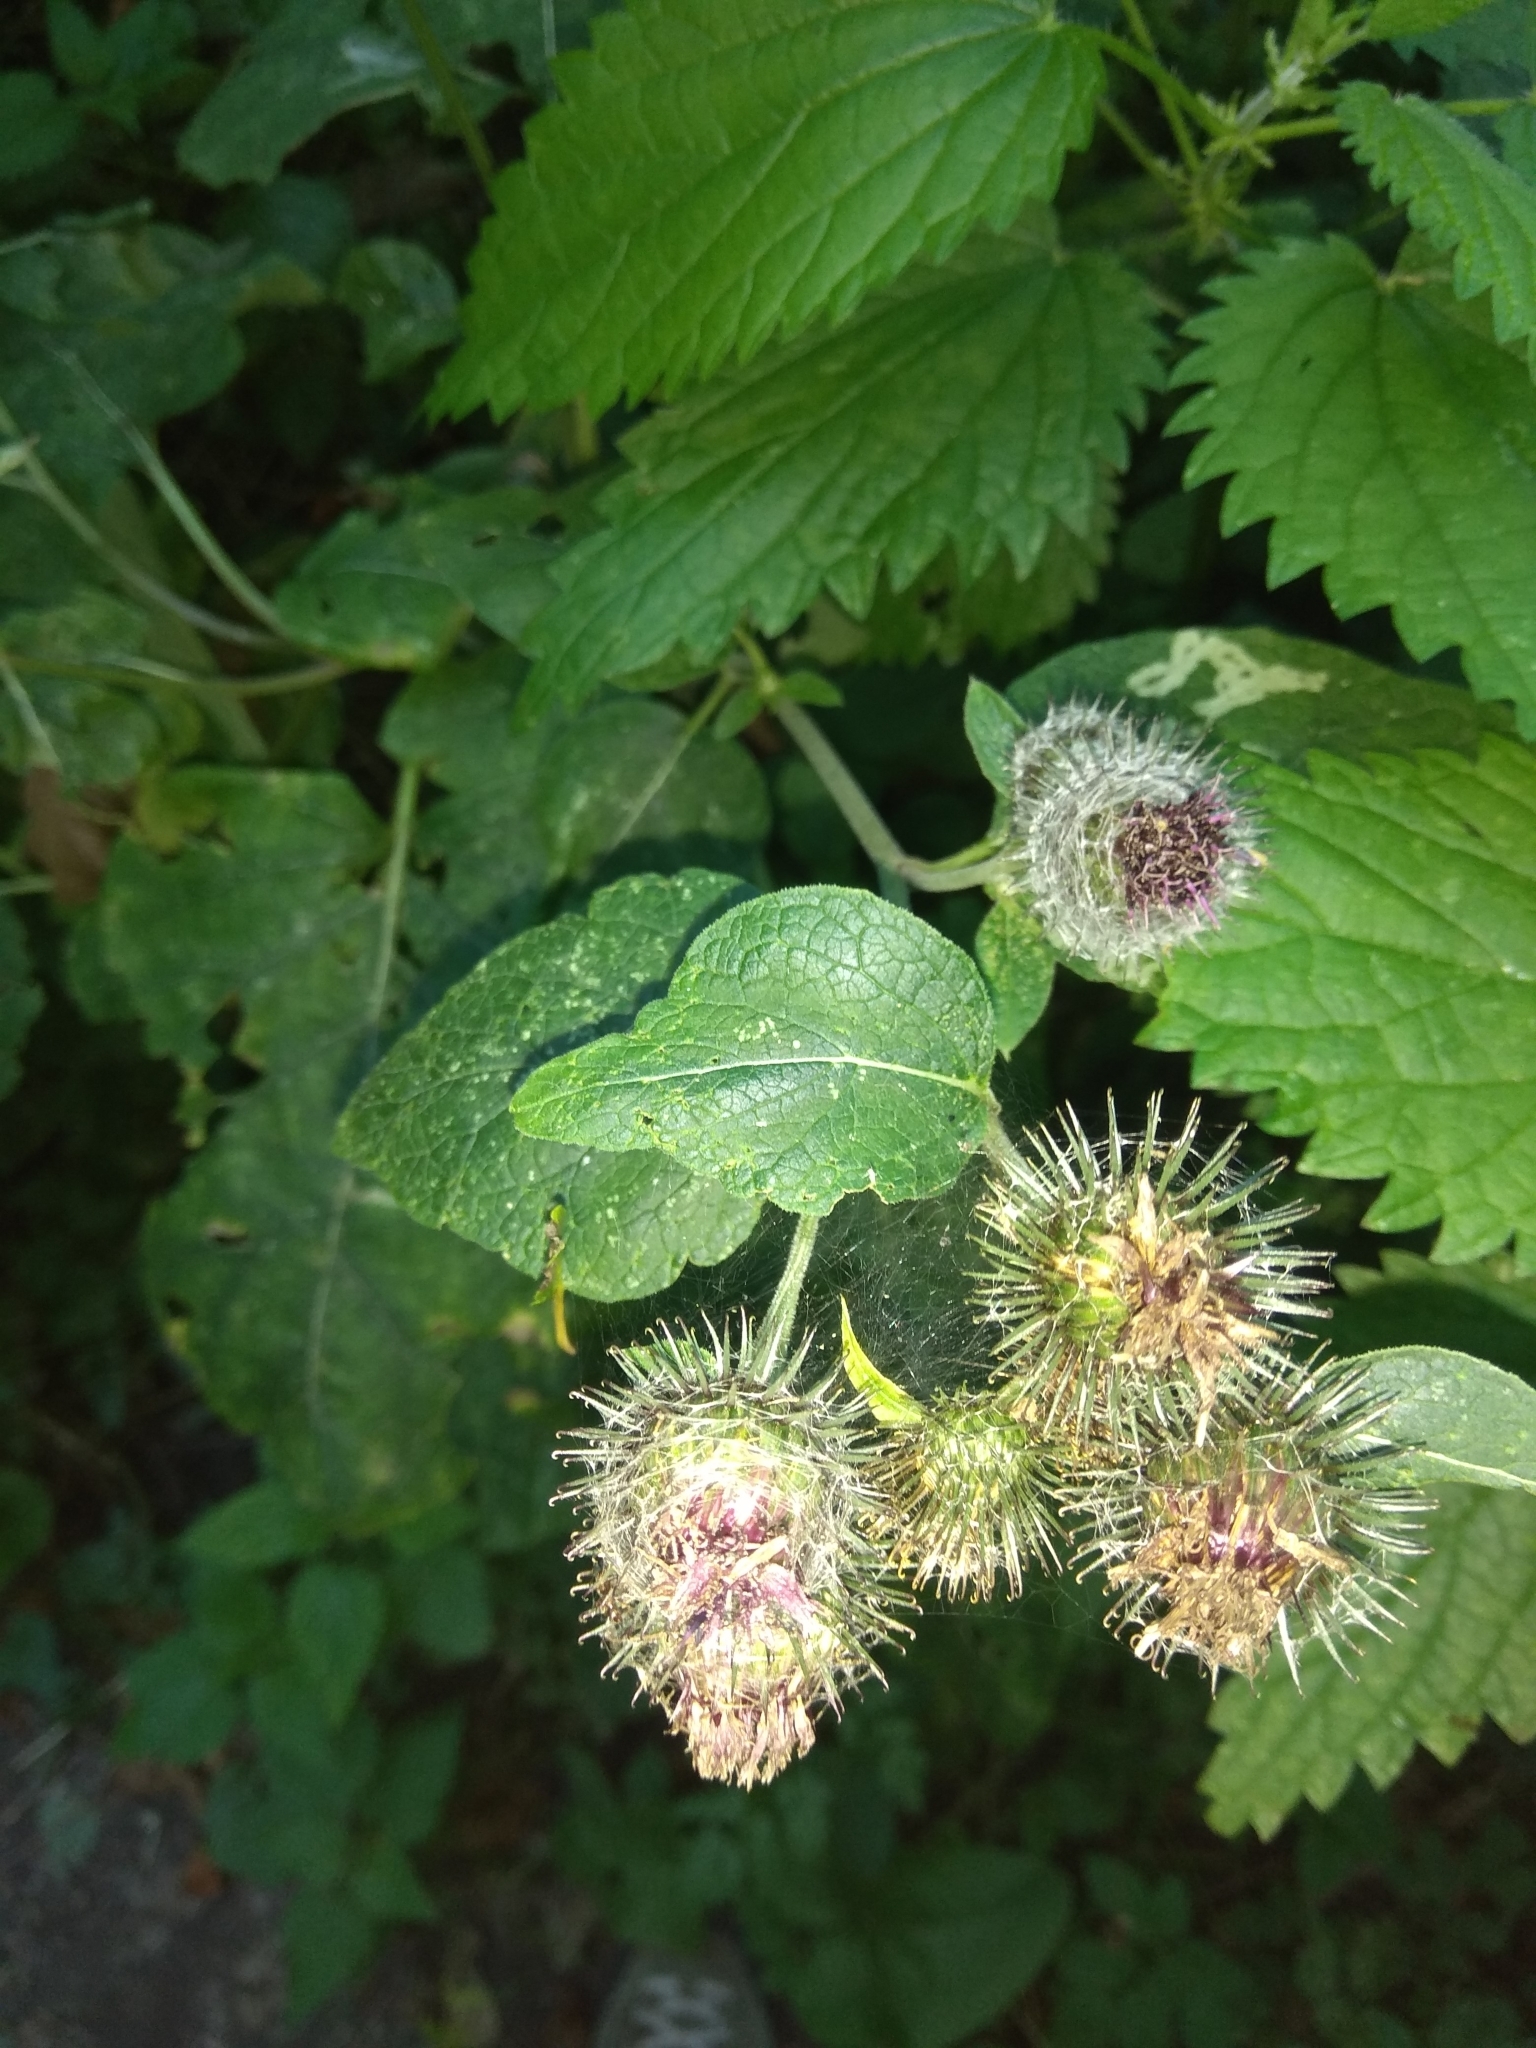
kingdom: Plantae
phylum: Tracheophyta
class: Magnoliopsida
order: Asterales
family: Asteraceae
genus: Arctium
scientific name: Arctium tomentosum
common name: Woolly burdock
